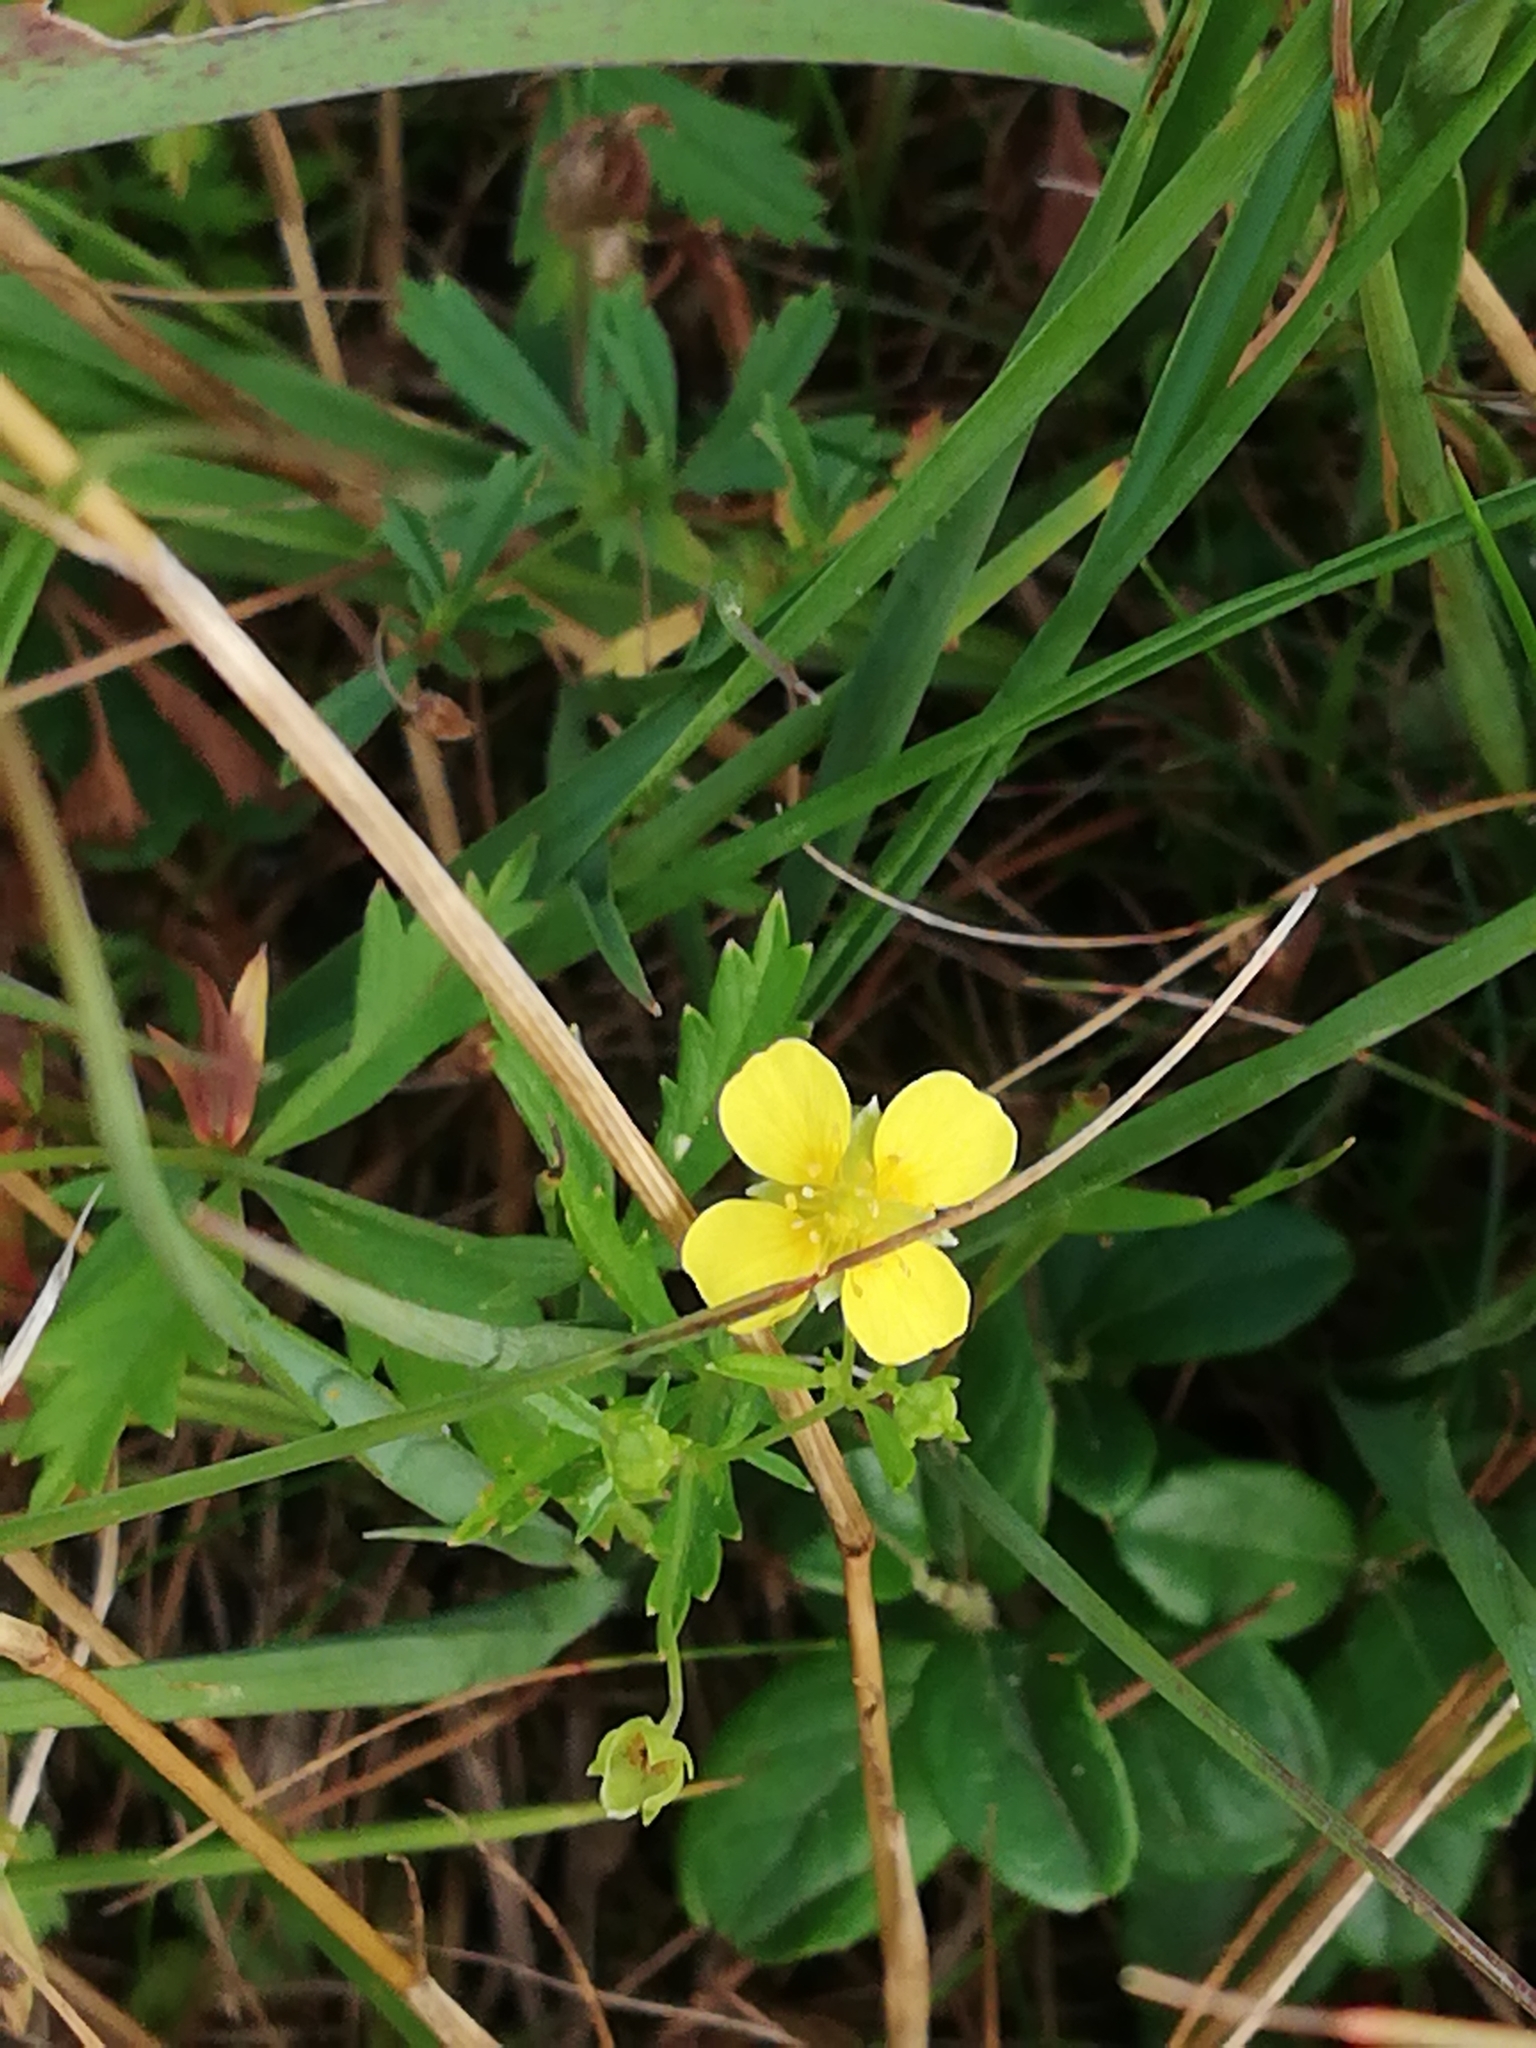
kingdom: Plantae
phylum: Tracheophyta
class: Magnoliopsida
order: Rosales
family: Rosaceae
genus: Potentilla
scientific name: Potentilla erecta
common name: Tormentil
